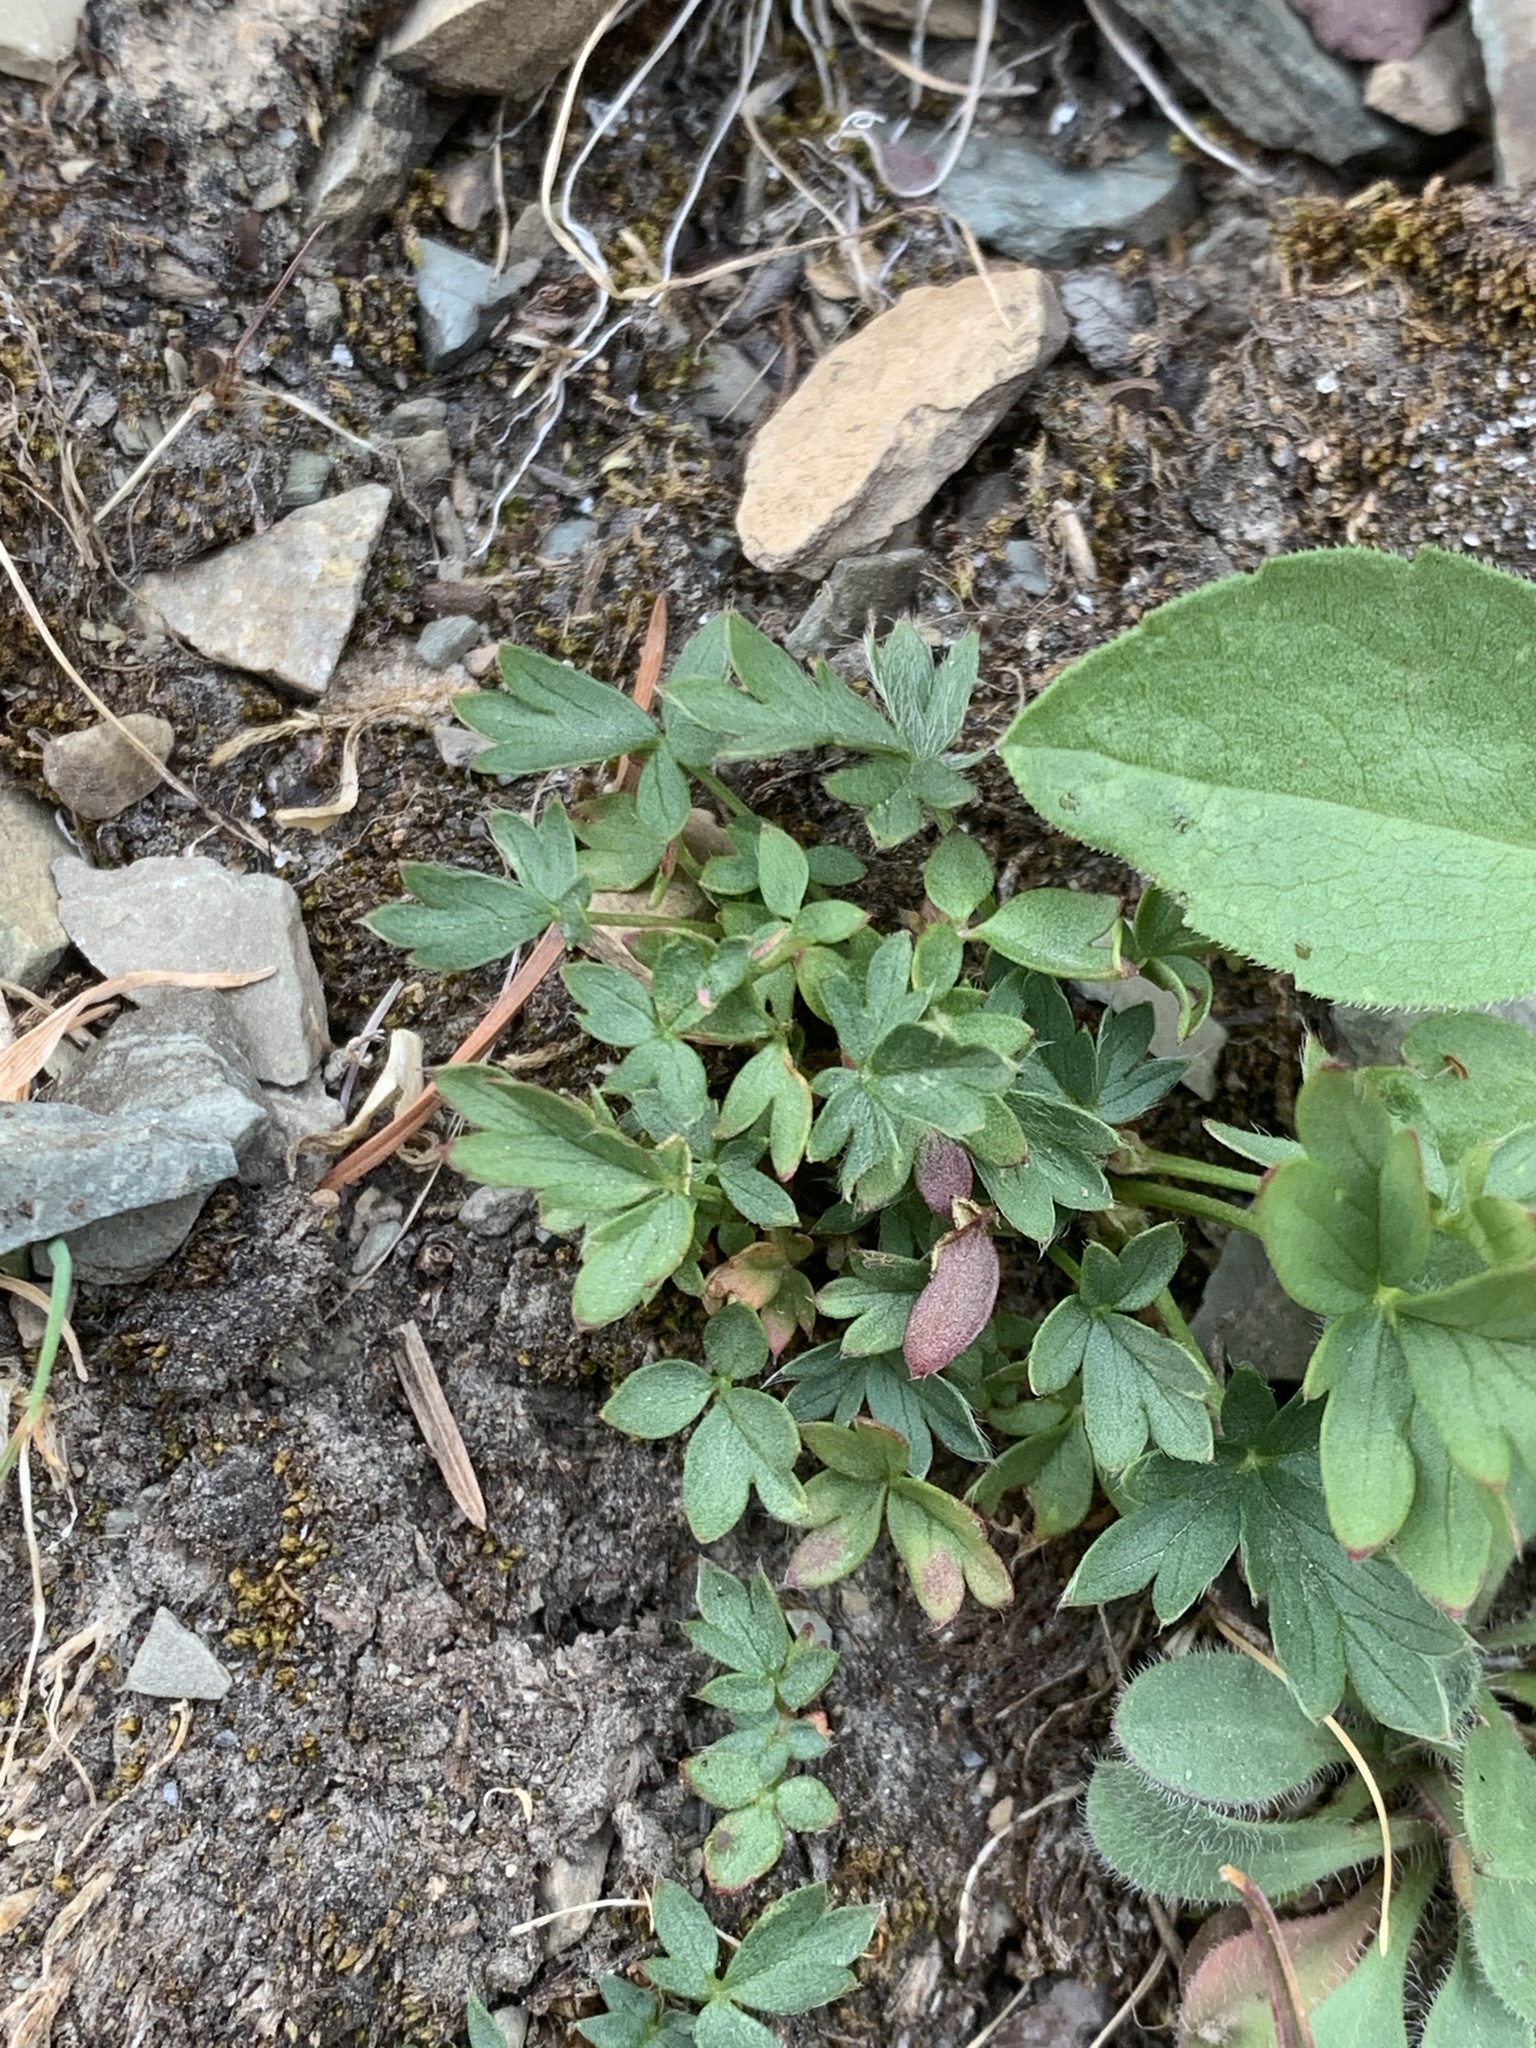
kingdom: Plantae
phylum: Tracheophyta
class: Magnoliopsida
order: Rosales
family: Rosaceae
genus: Sibbaldia
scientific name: Sibbaldia procumbens
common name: Creeping sibbaldia
